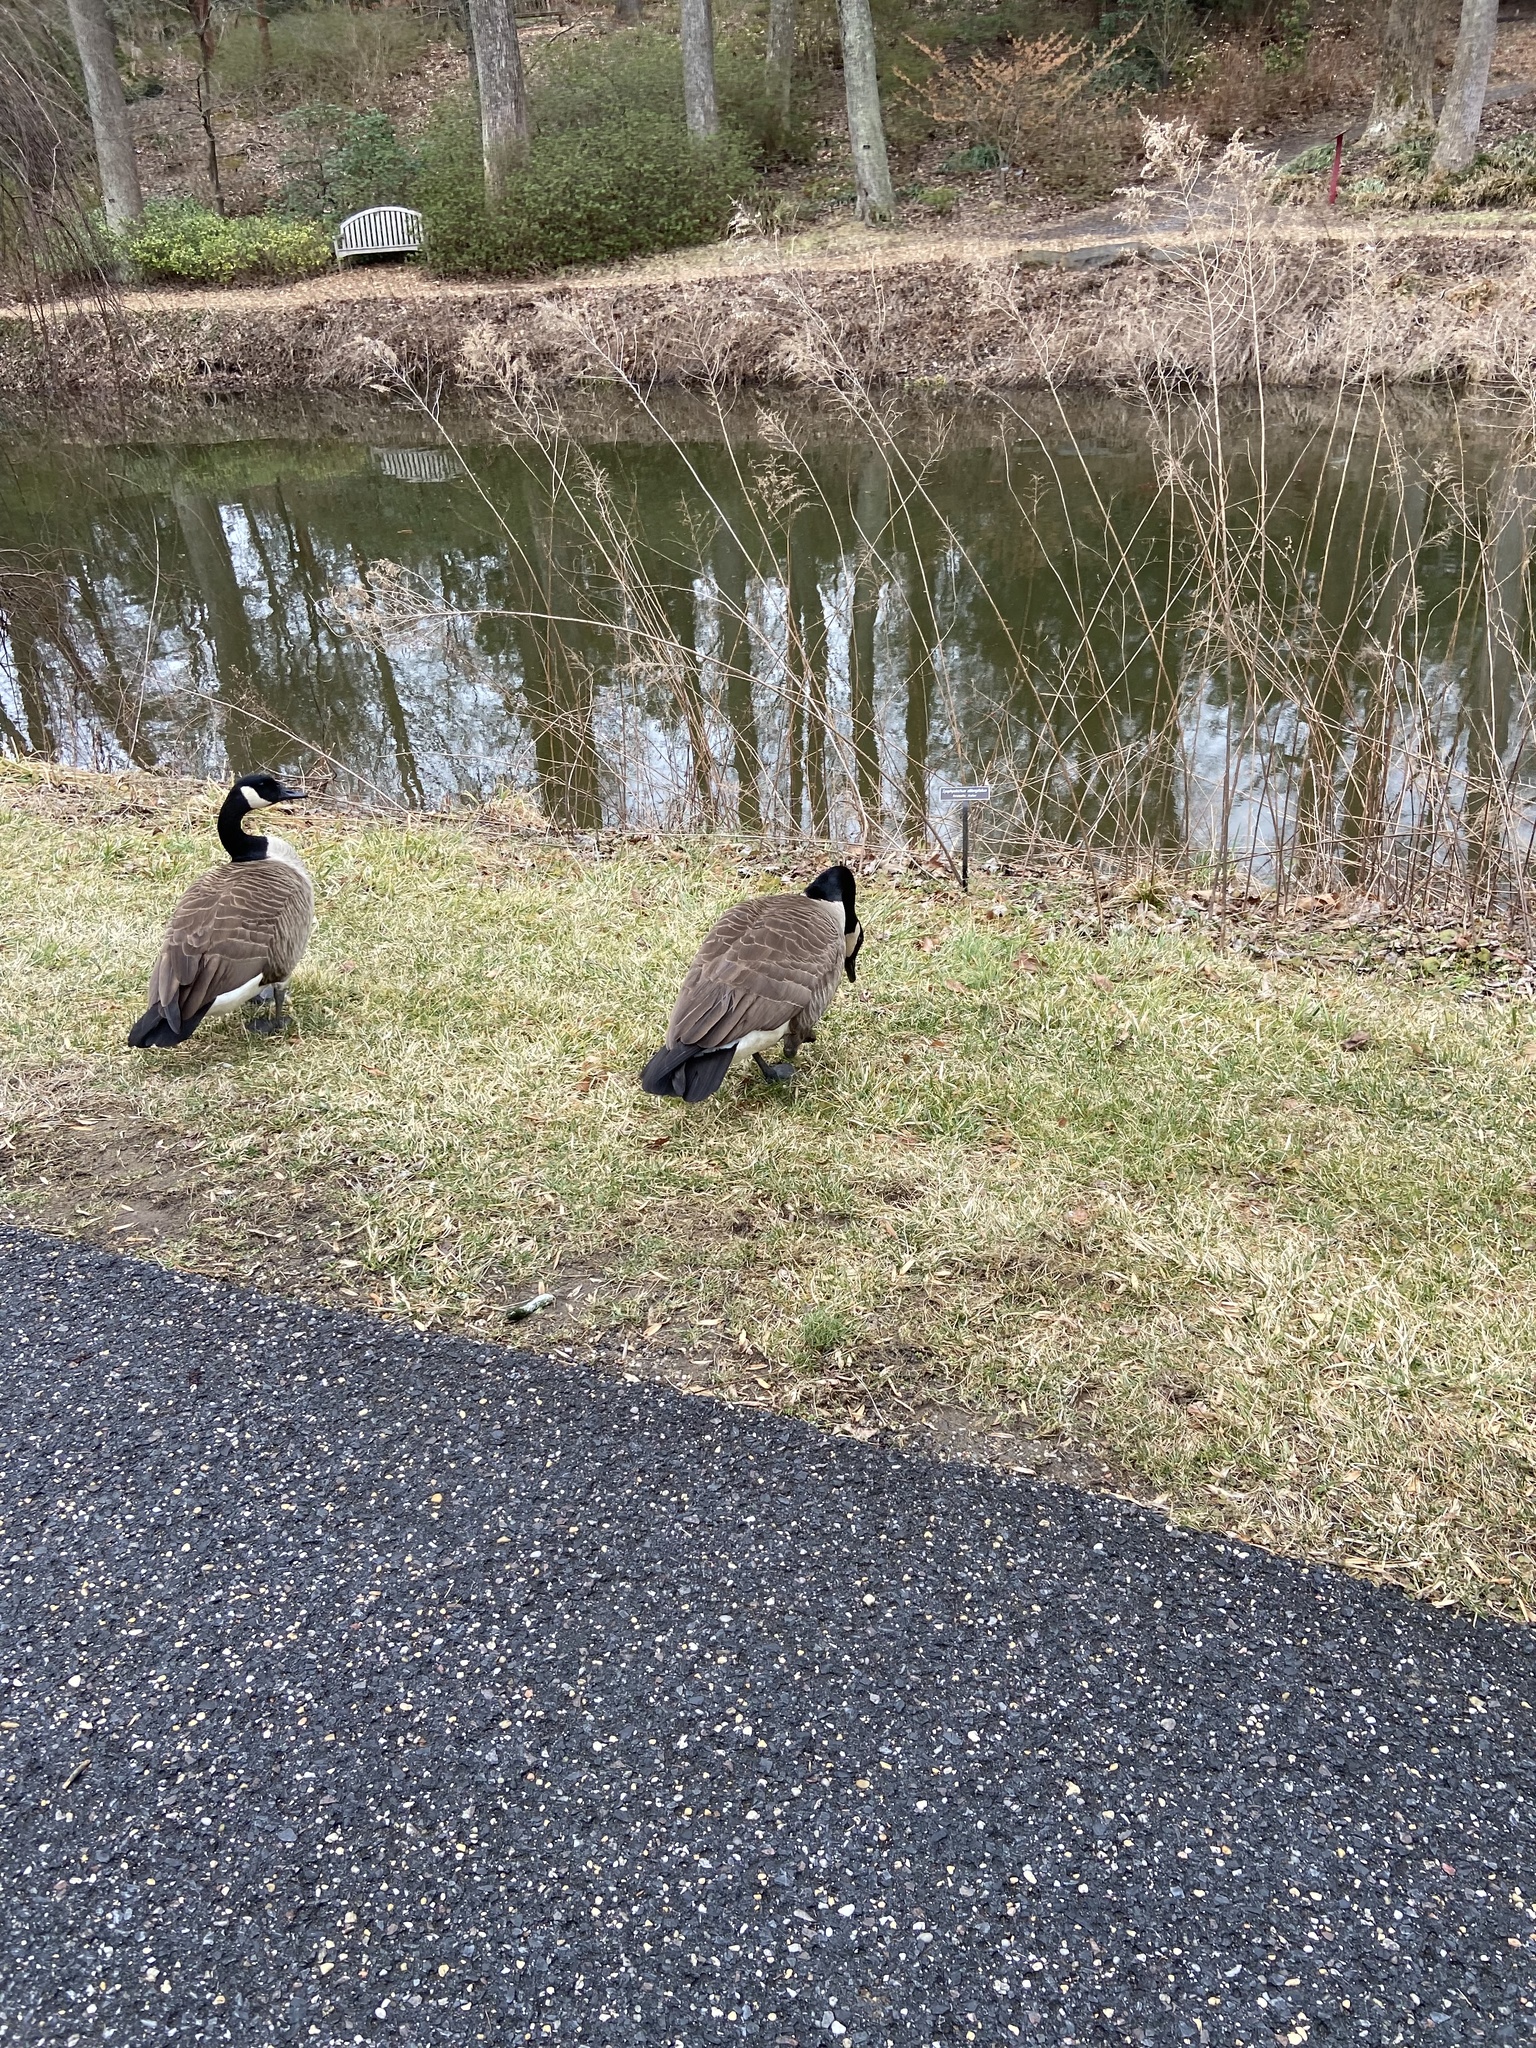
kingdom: Animalia
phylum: Chordata
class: Aves
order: Anseriformes
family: Anatidae
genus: Branta
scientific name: Branta canadensis
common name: Canada goose
